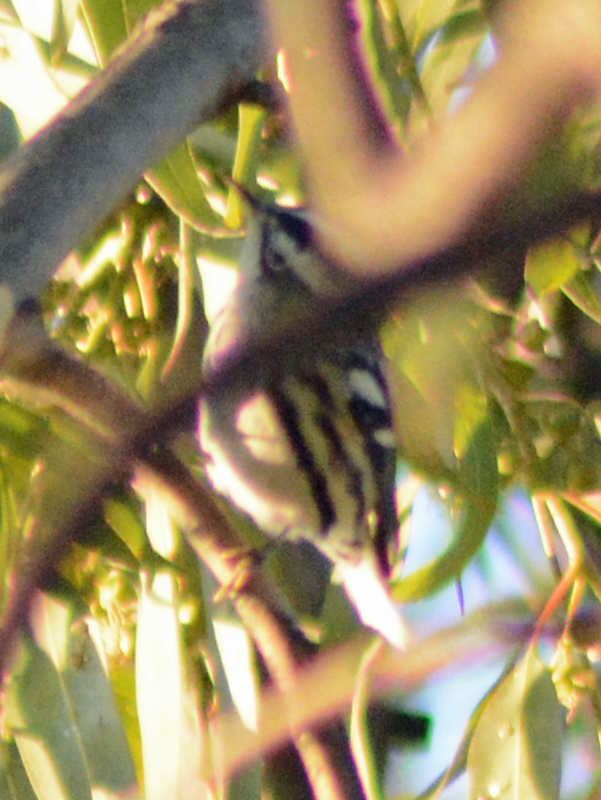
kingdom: Animalia
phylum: Chordata
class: Aves
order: Passeriformes
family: Parulidae
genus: Mniotilta
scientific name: Mniotilta varia
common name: Black-and-white warbler
